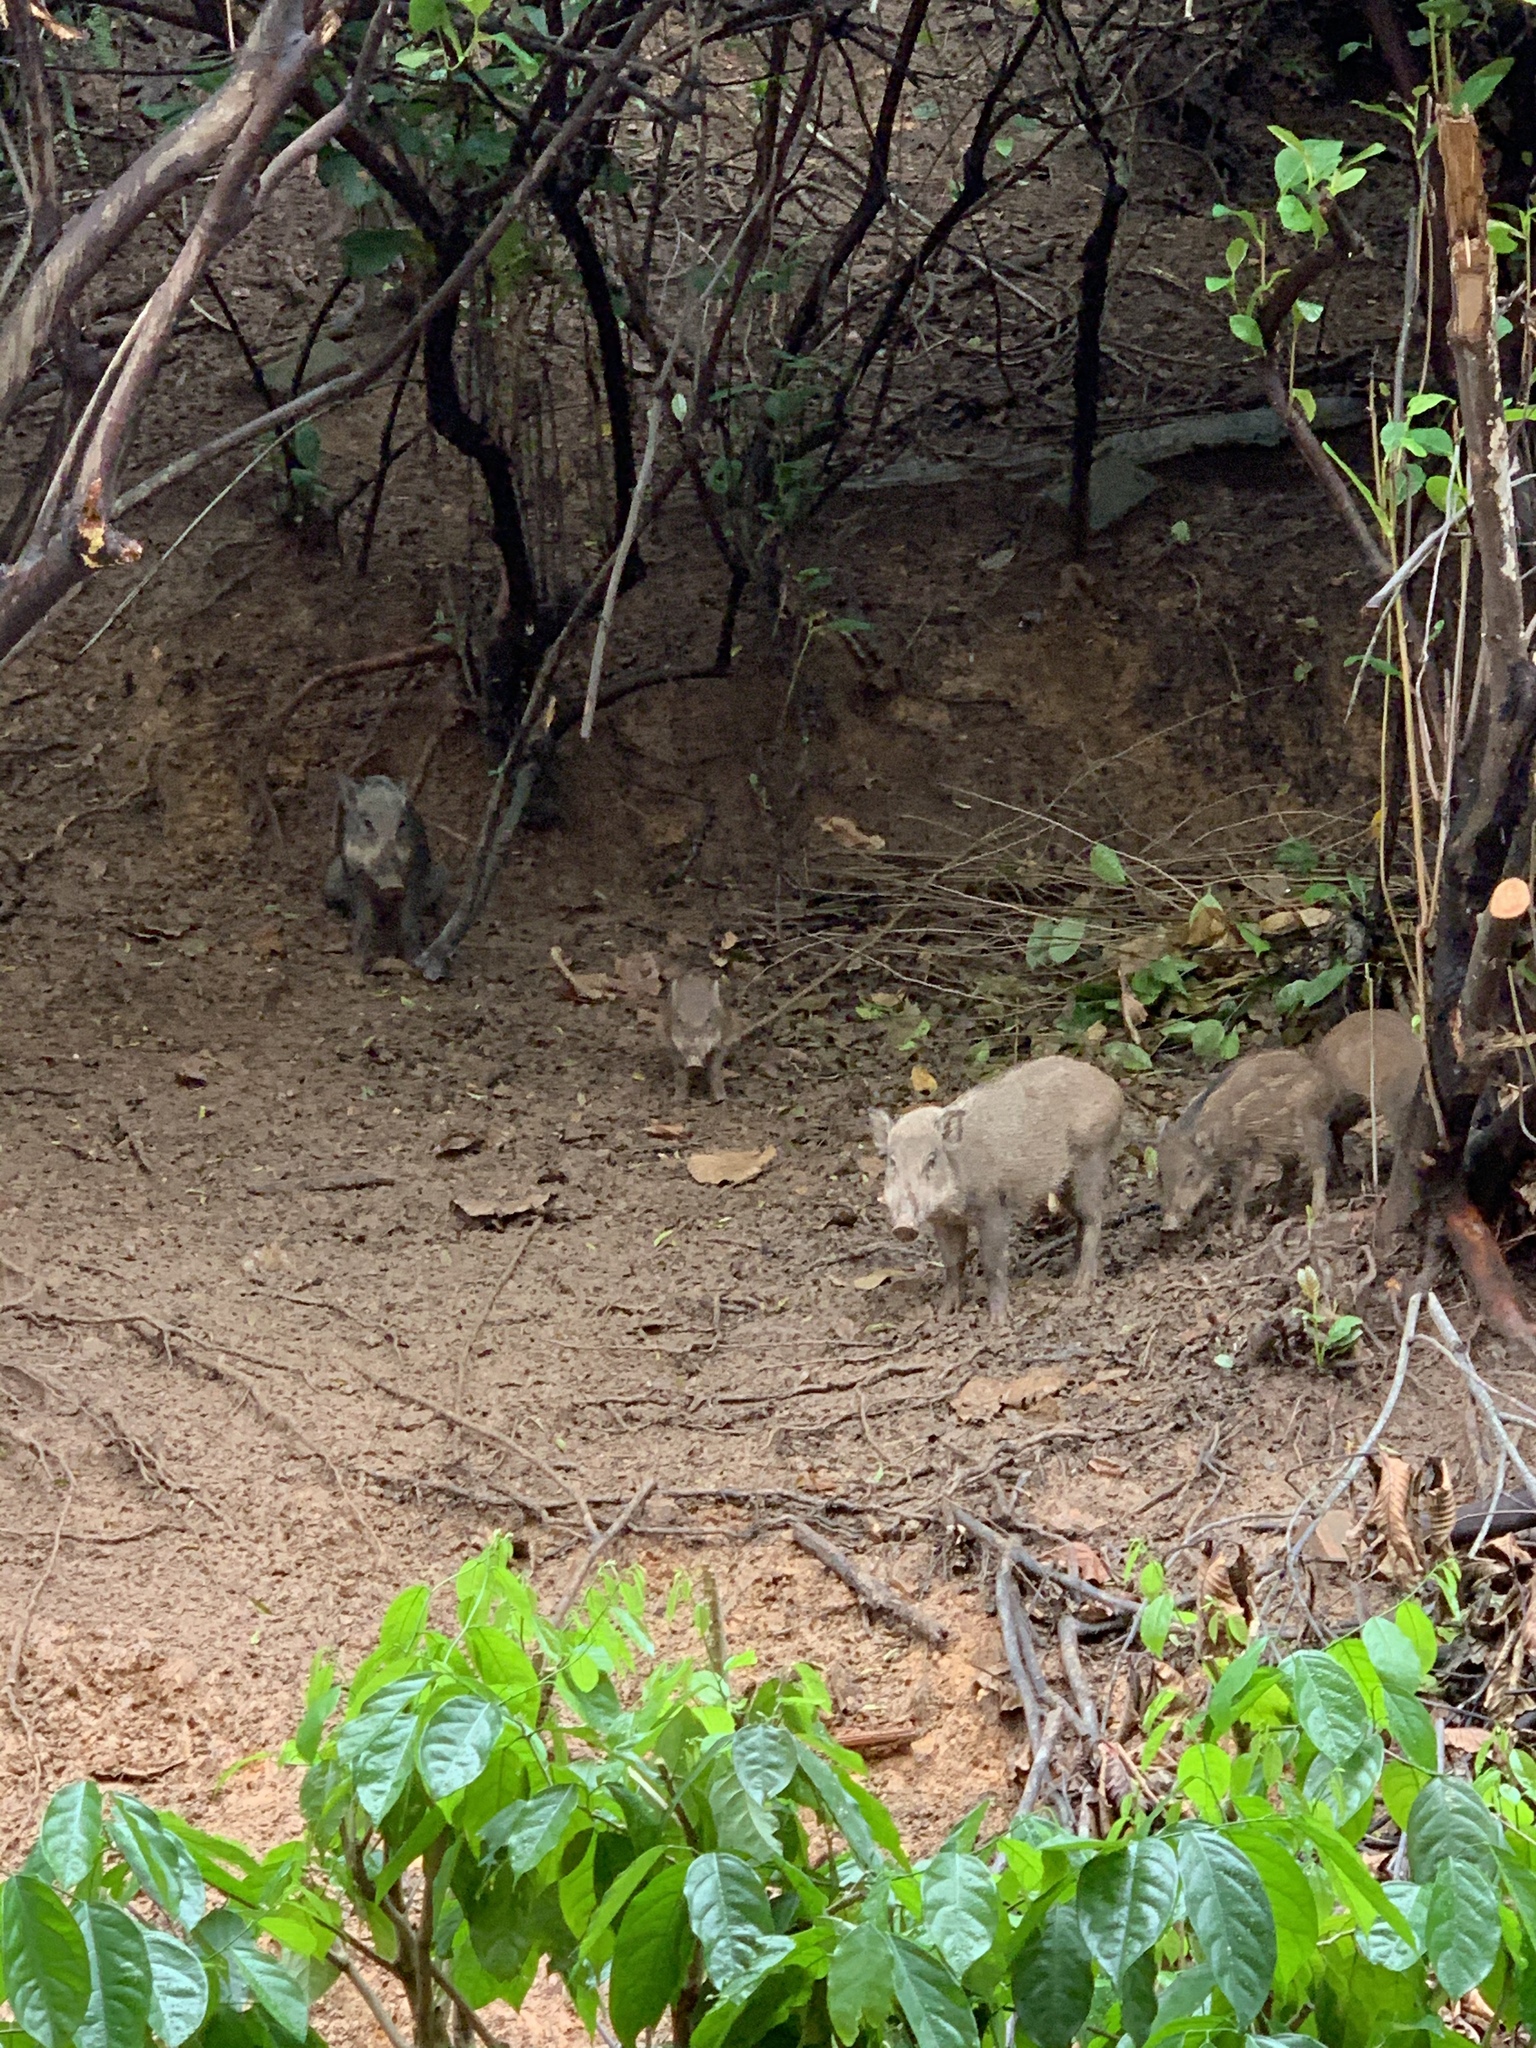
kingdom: Animalia
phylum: Chordata
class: Mammalia
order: Artiodactyla
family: Suidae
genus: Sus
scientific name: Sus scrofa
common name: Wild boar
